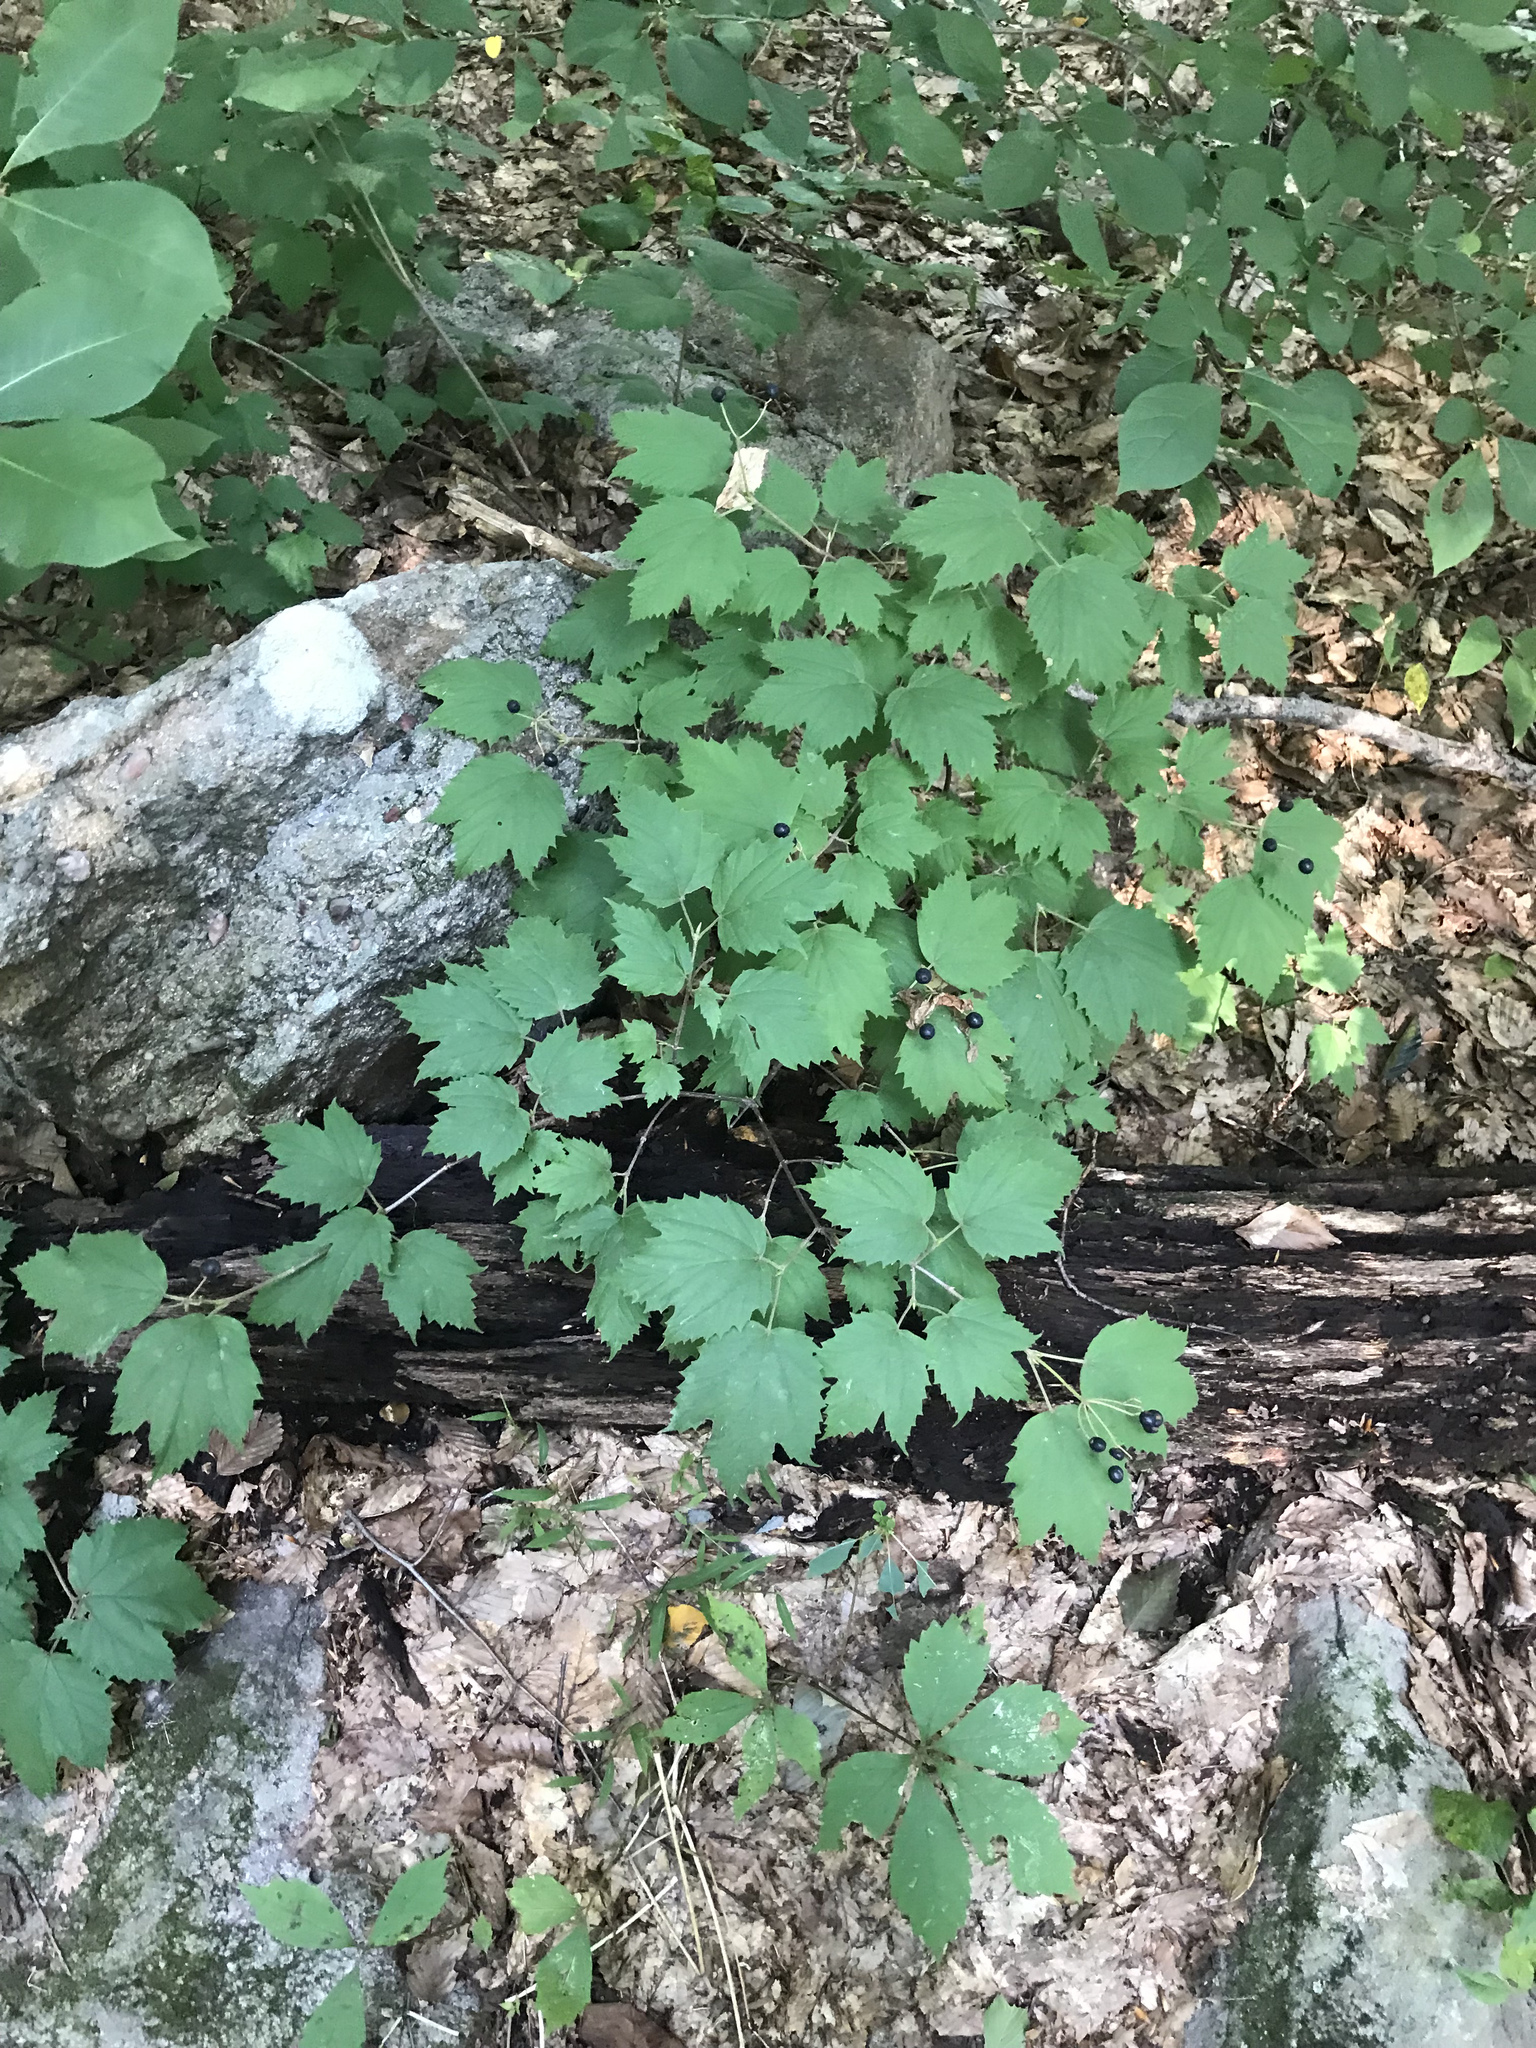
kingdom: Plantae
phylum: Tracheophyta
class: Magnoliopsida
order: Dipsacales
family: Viburnaceae
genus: Viburnum
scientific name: Viburnum acerifolium
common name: Dockmackie
